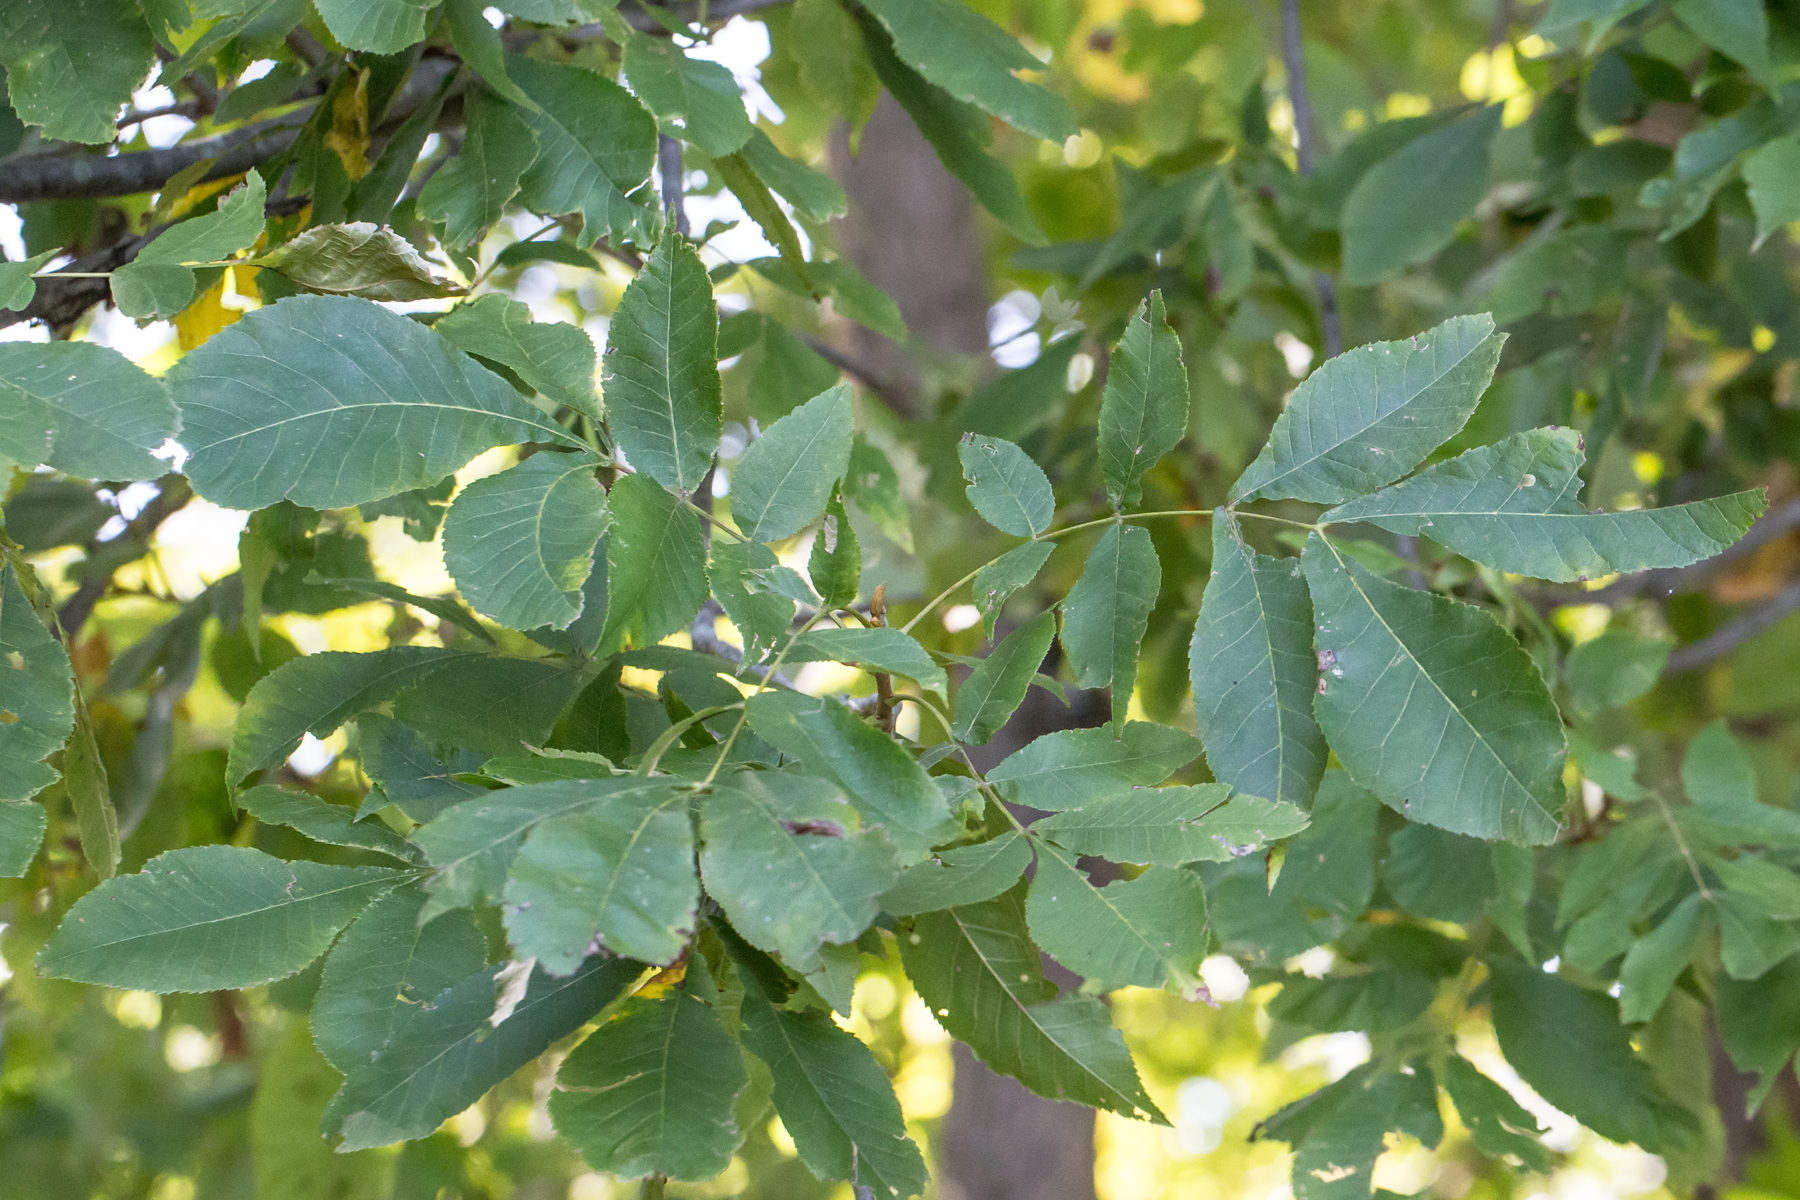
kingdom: Plantae
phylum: Tracheophyta
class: Magnoliopsida
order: Fagales
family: Juglandaceae
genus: Carya
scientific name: Carya cordiformis
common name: Bitternut hickory
